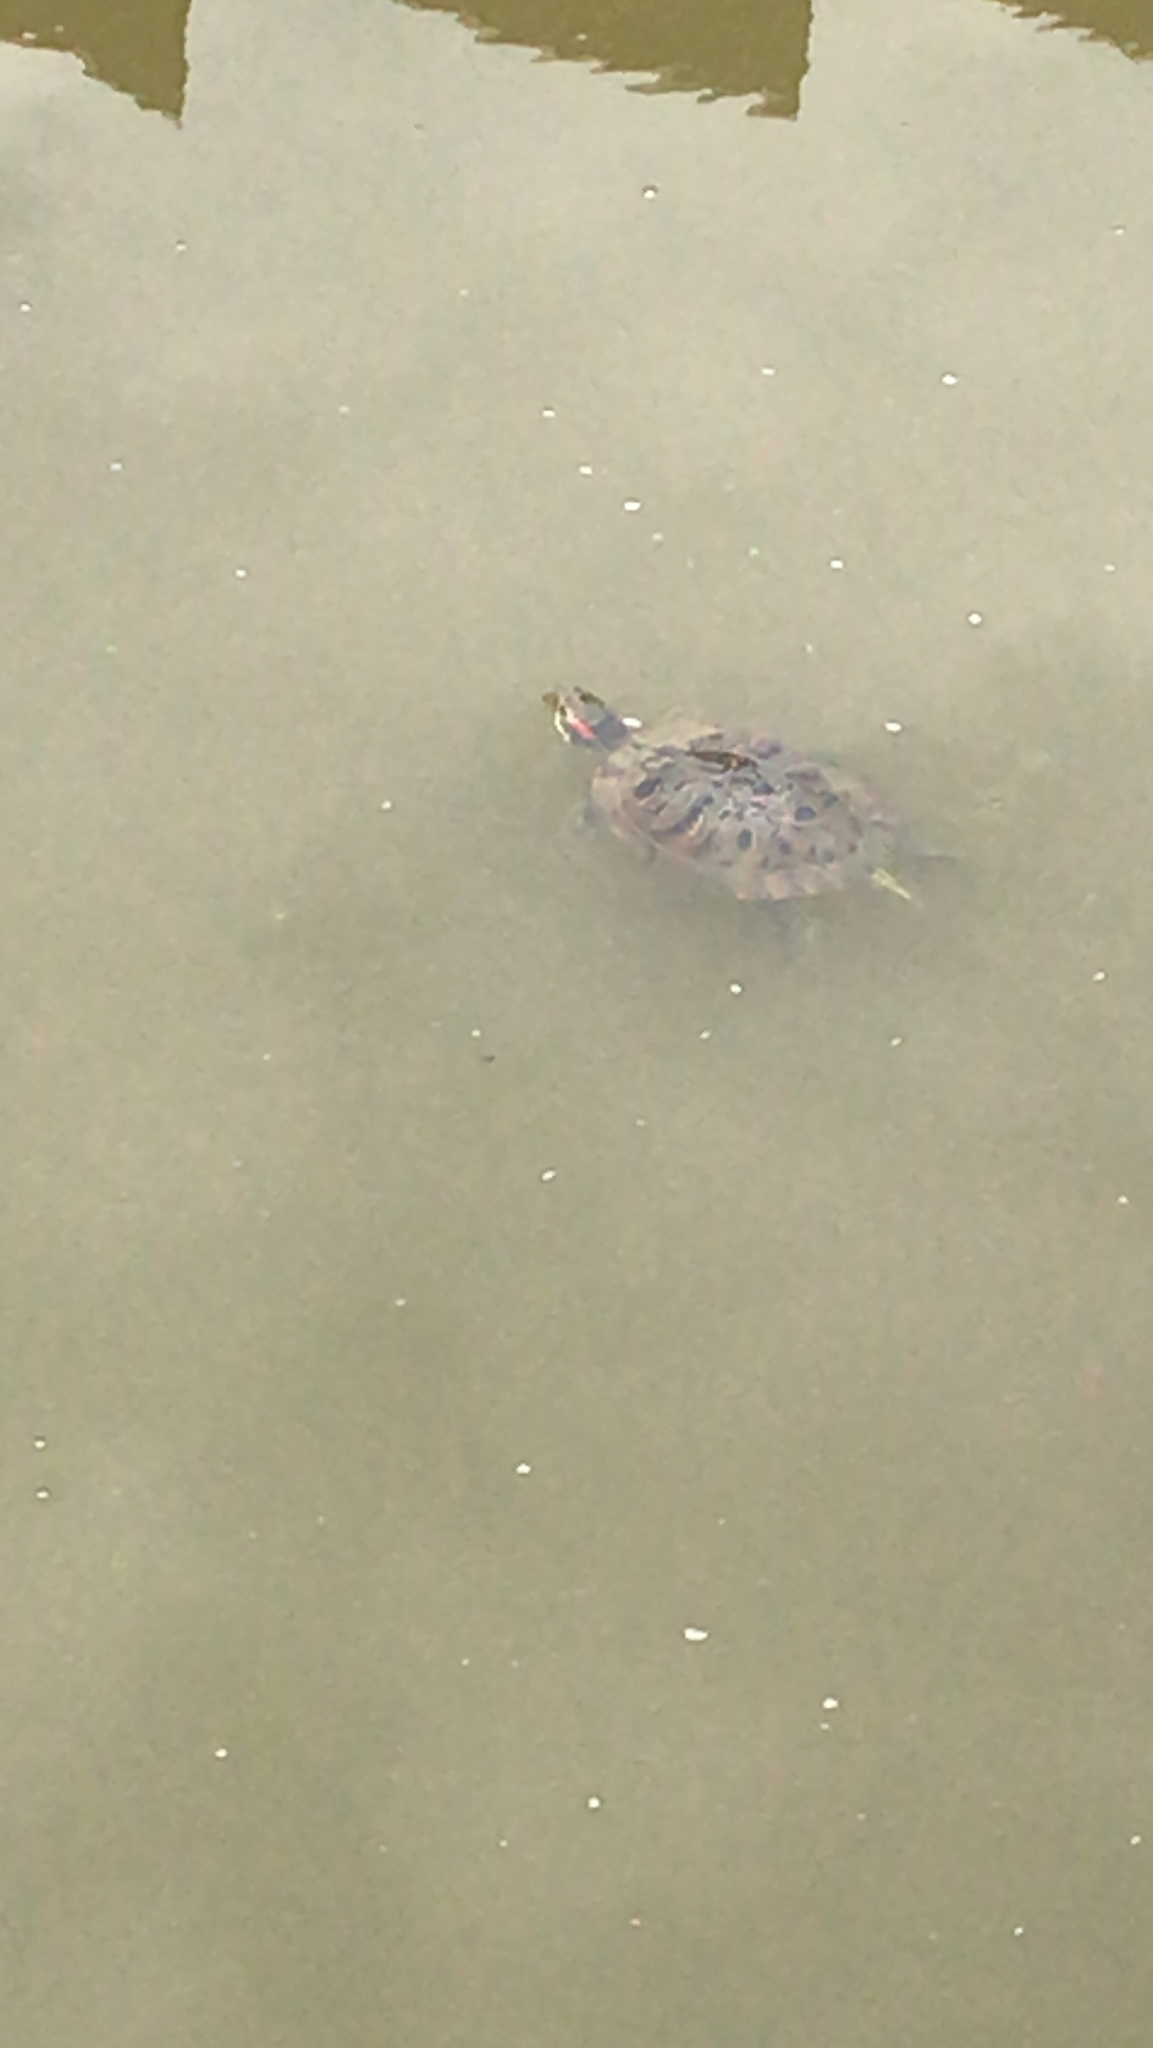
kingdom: Animalia
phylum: Chordata
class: Testudines
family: Emydidae
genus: Trachemys
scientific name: Trachemys scripta
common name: Slider
